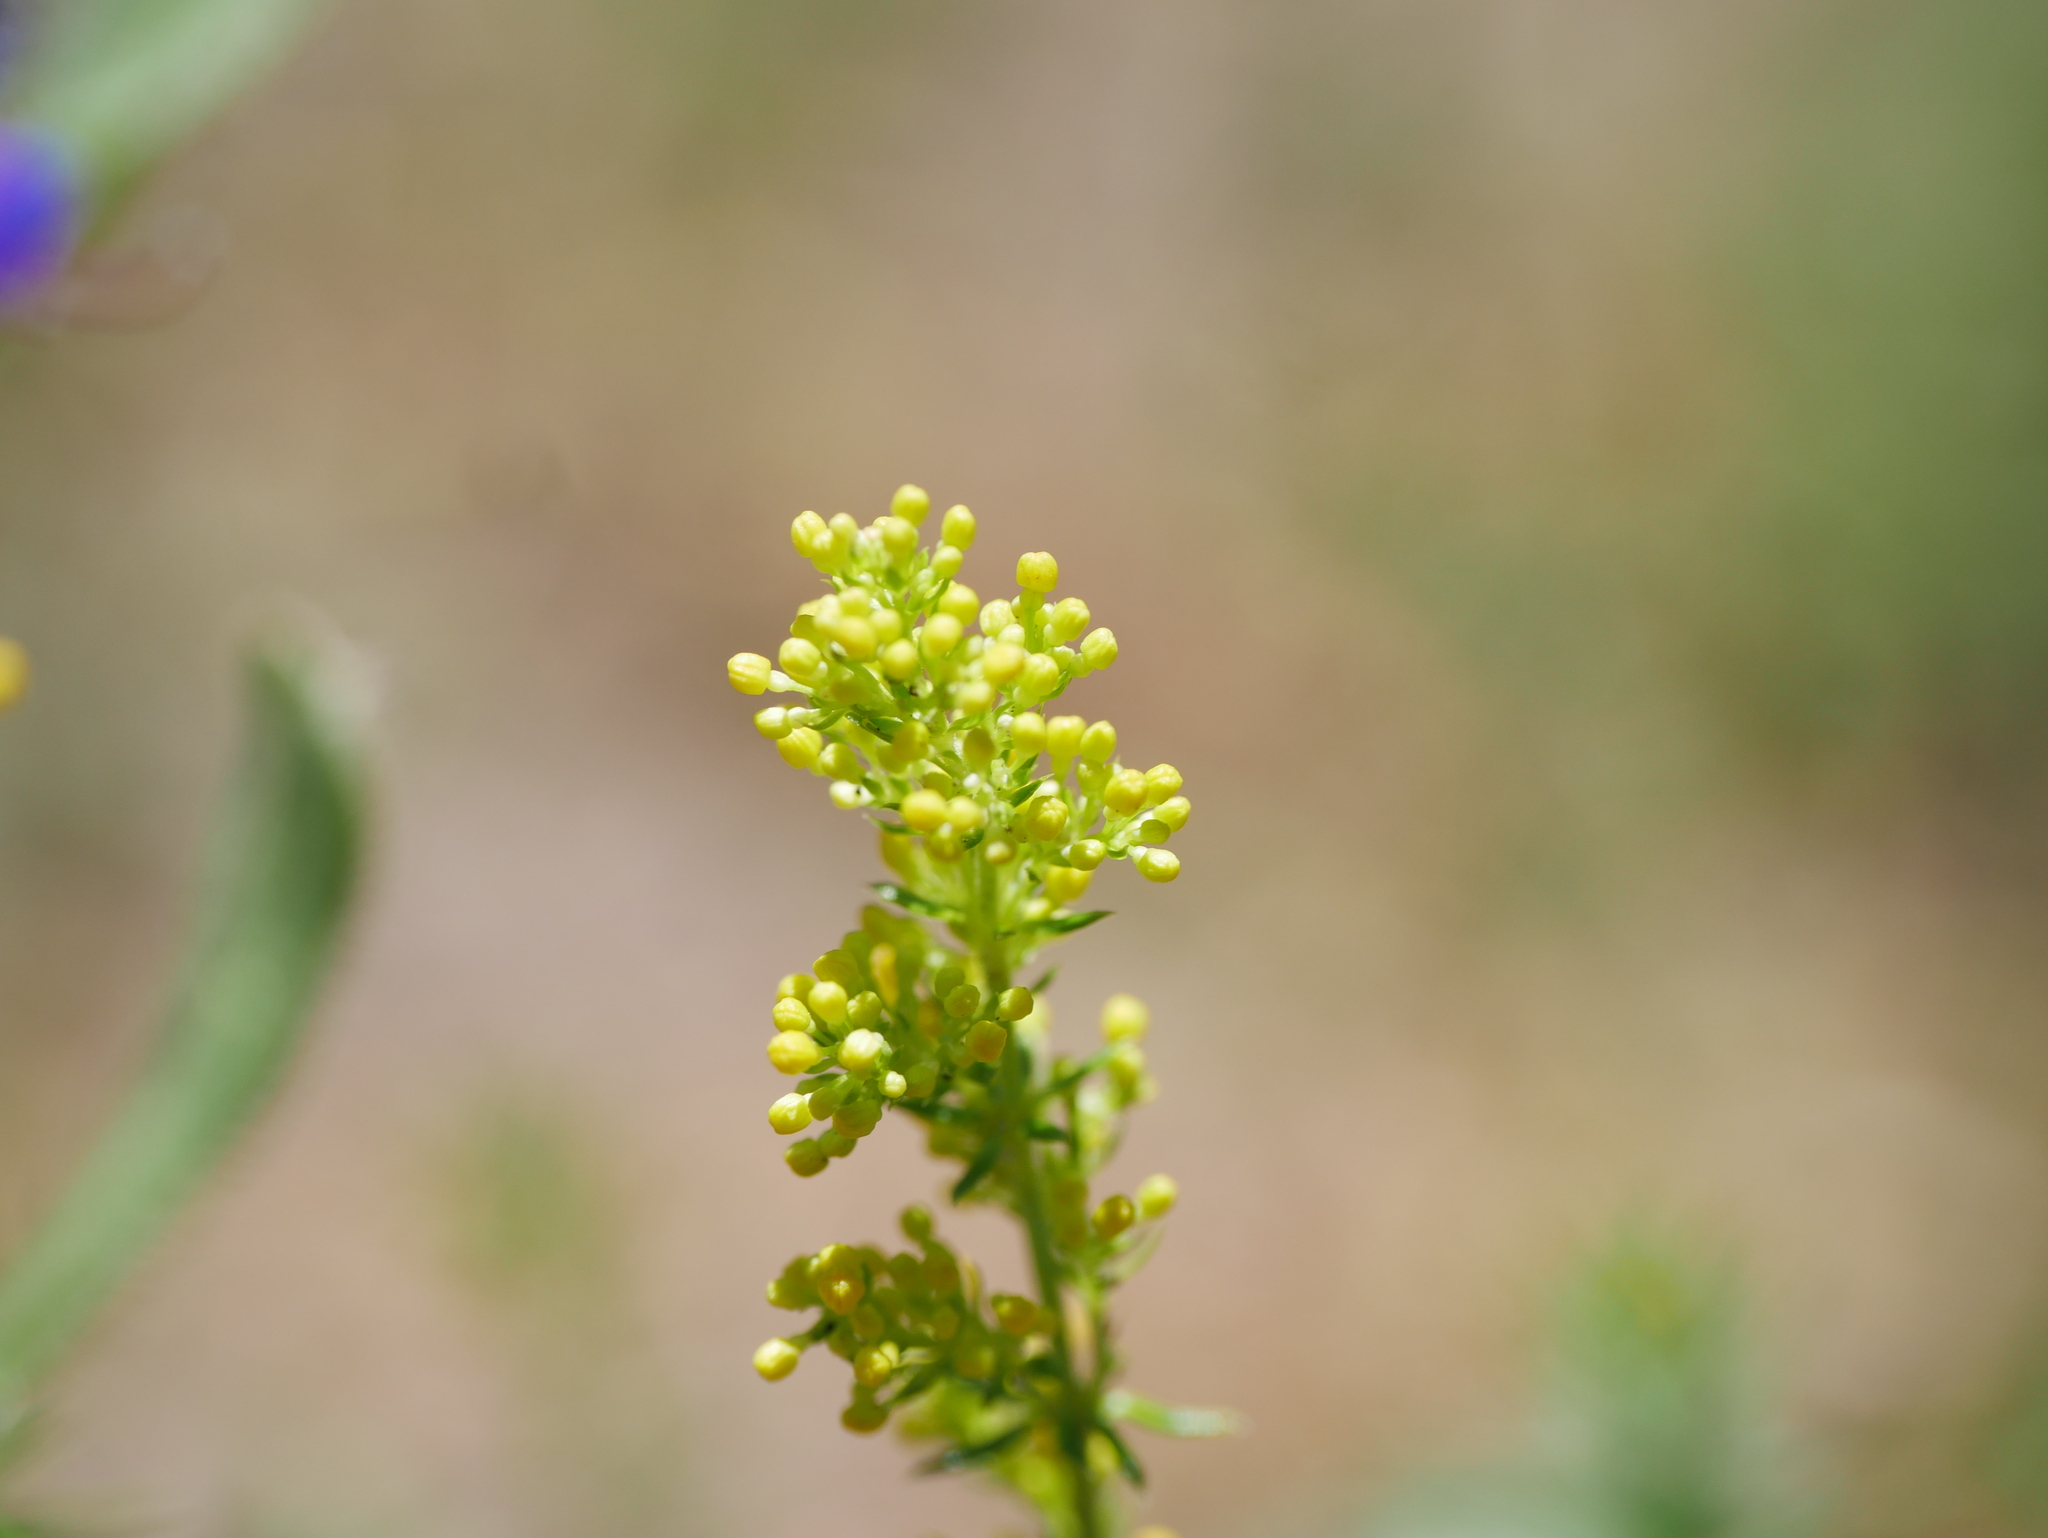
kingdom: Plantae
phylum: Tracheophyta
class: Magnoliopsida
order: Gentianales
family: Rubiaceae
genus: Galium
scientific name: Galium verum
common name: Lady's bedstraw
